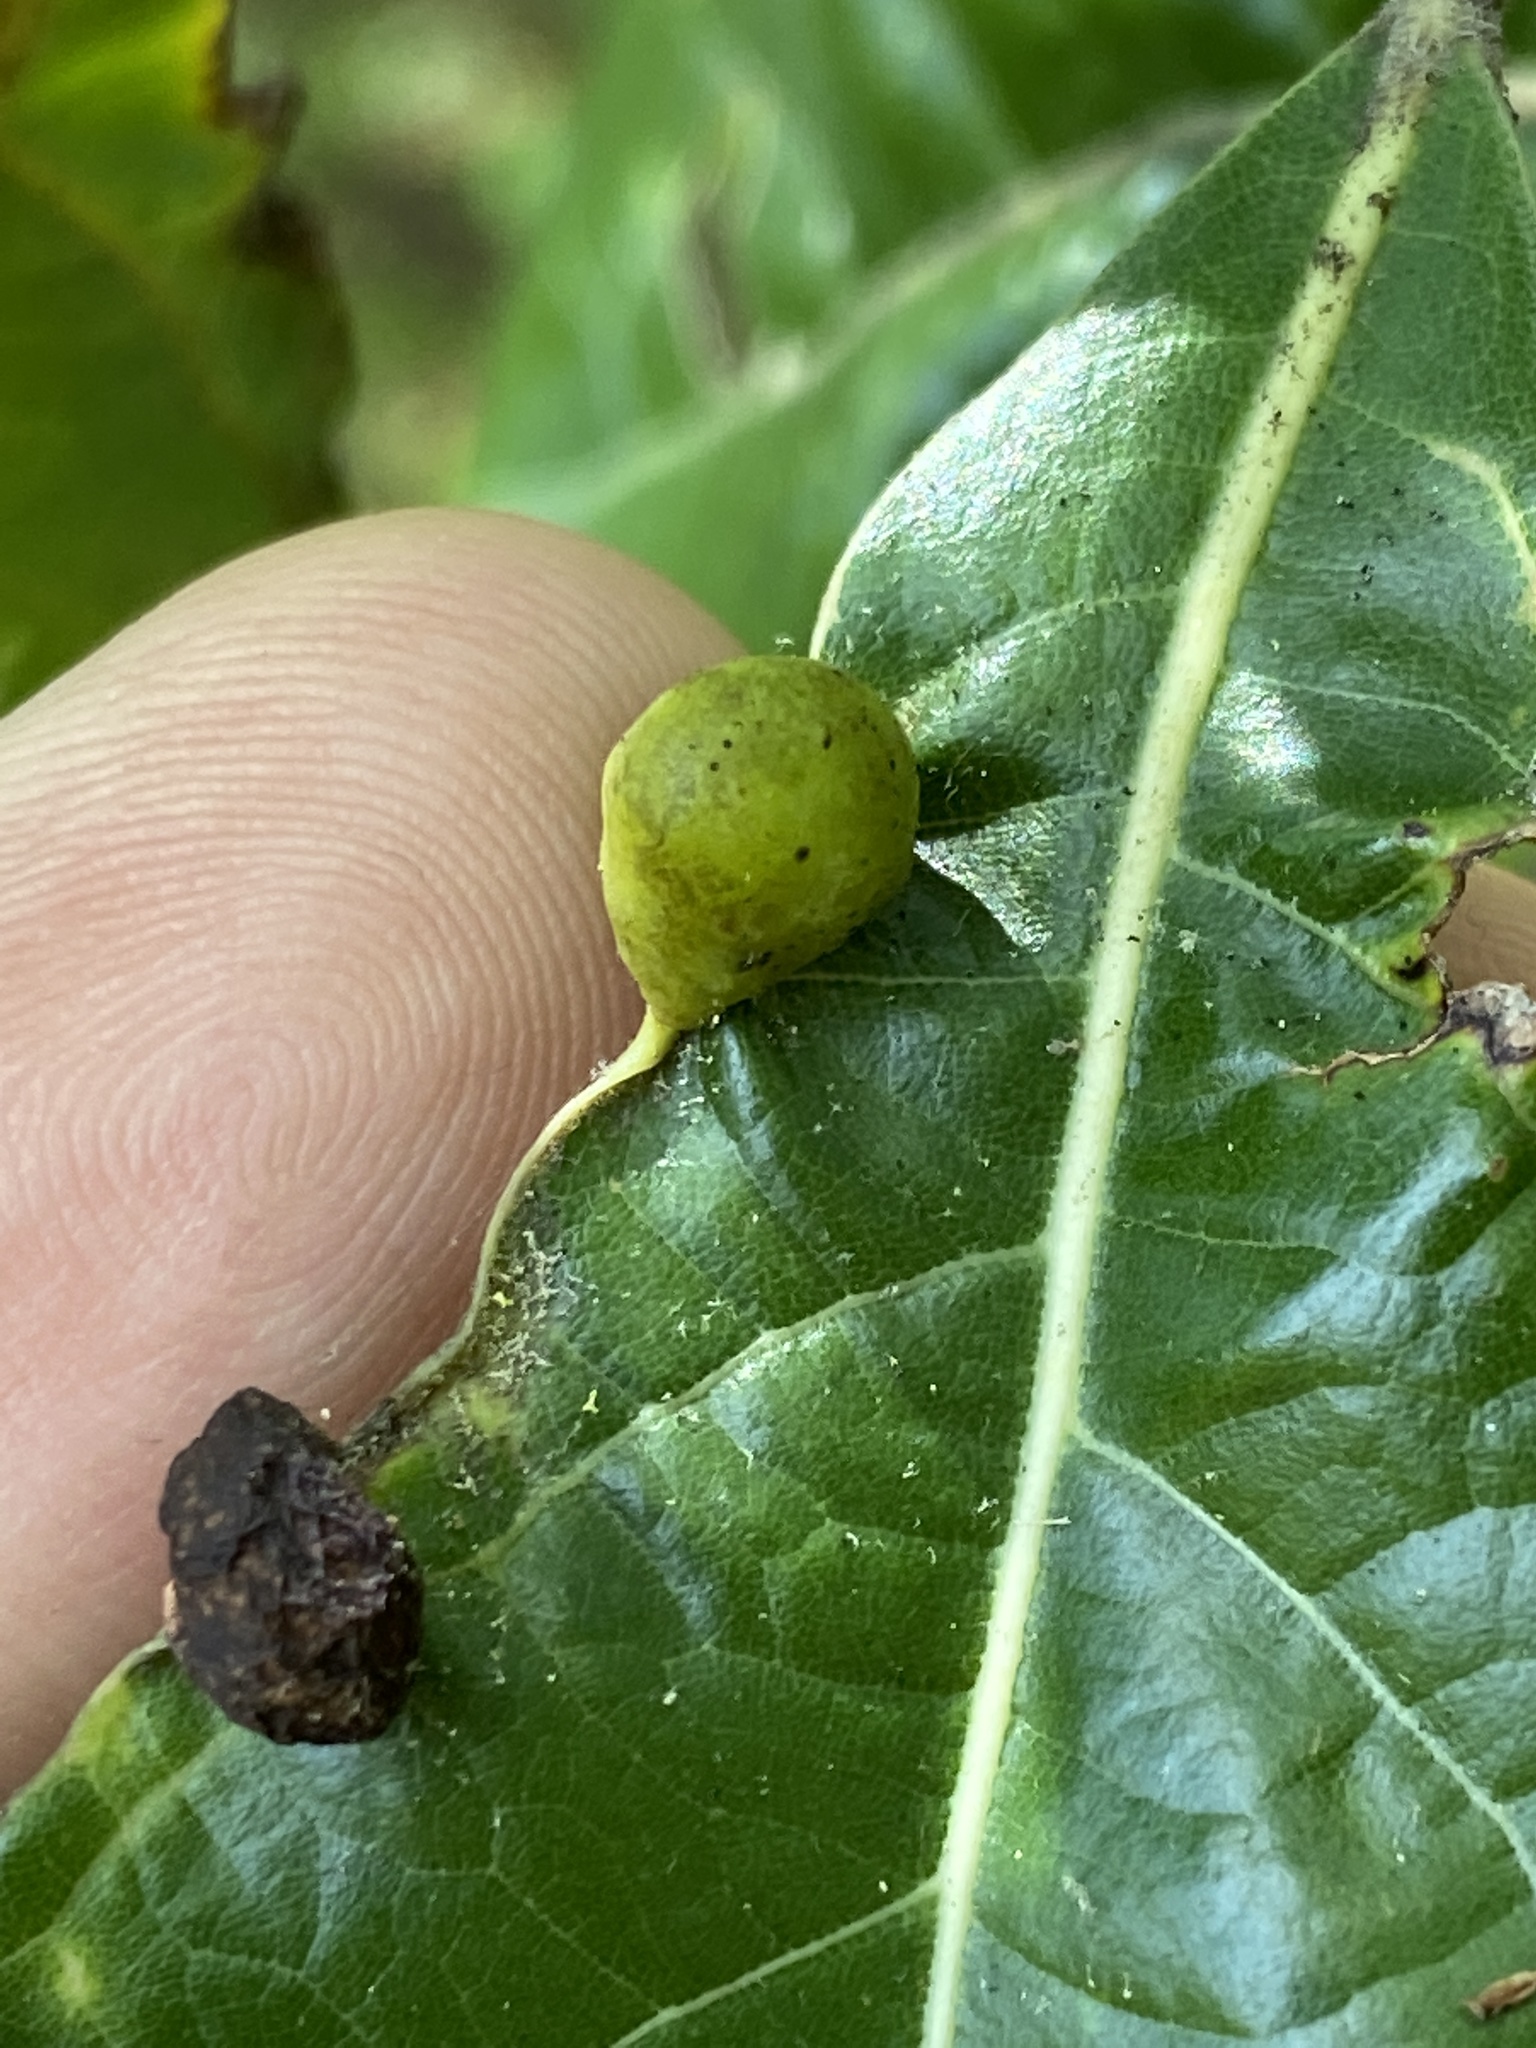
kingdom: Animalia
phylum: Arthropoda
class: Insecta
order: Hemiptera
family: Triozidae
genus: Trioza
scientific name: Trioza magnoliae
